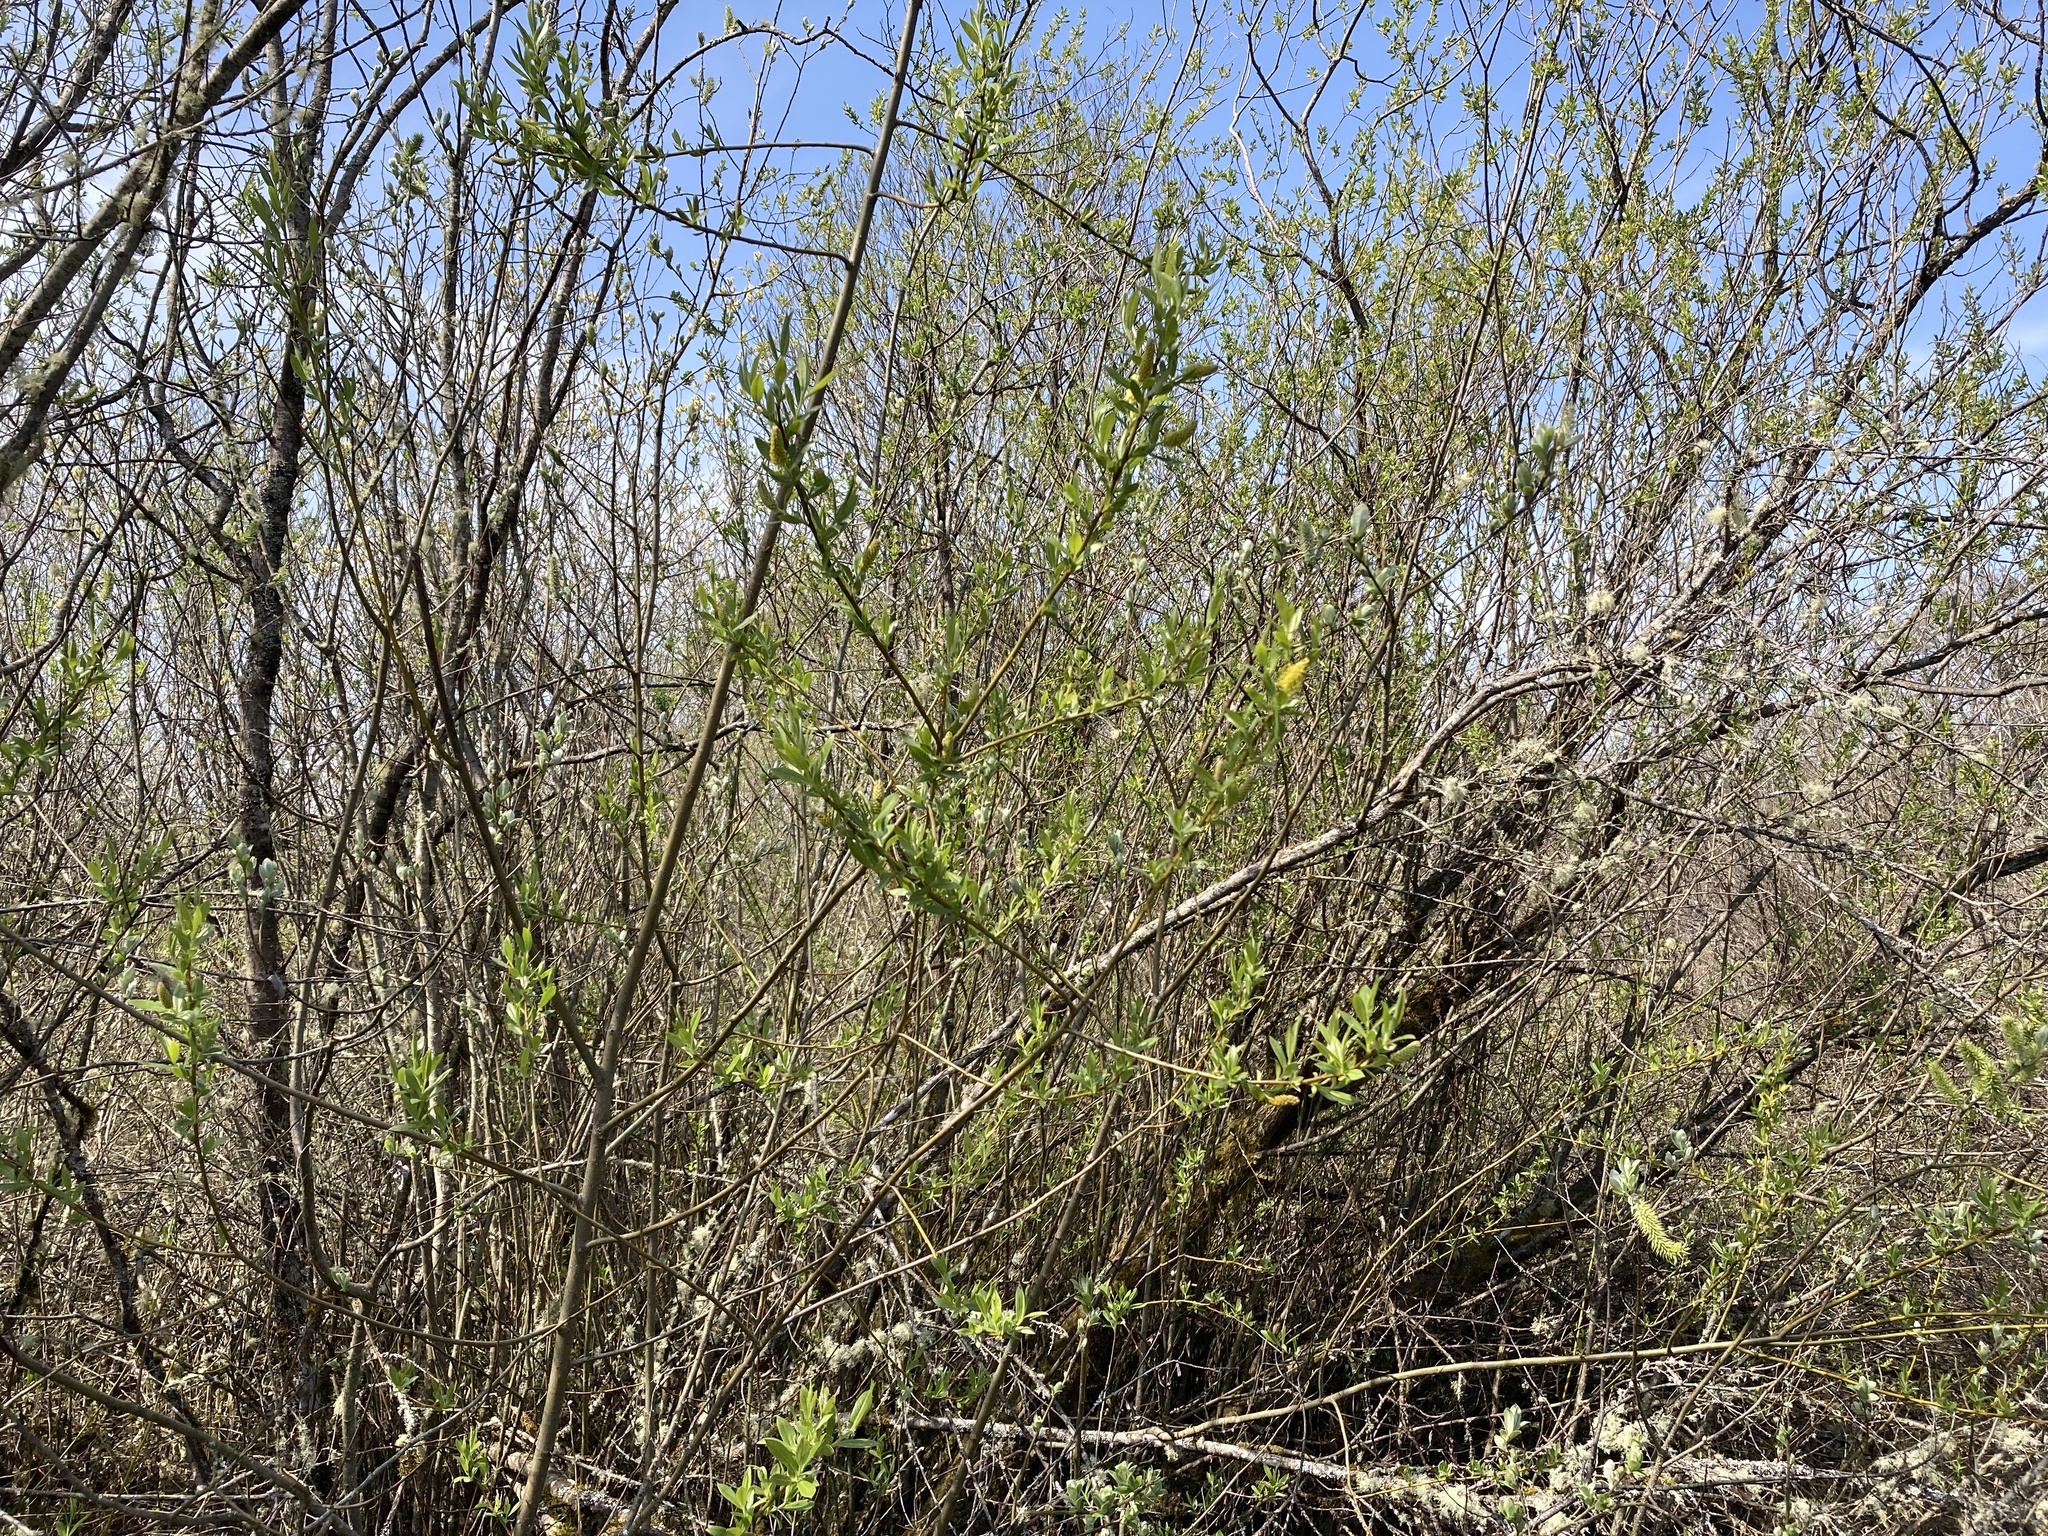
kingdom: Plantae
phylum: Tracheophyta
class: Magnoliopsida
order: Malpighiales
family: Salicaceae
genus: Salix
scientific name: Salix lucida
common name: Shining willow
